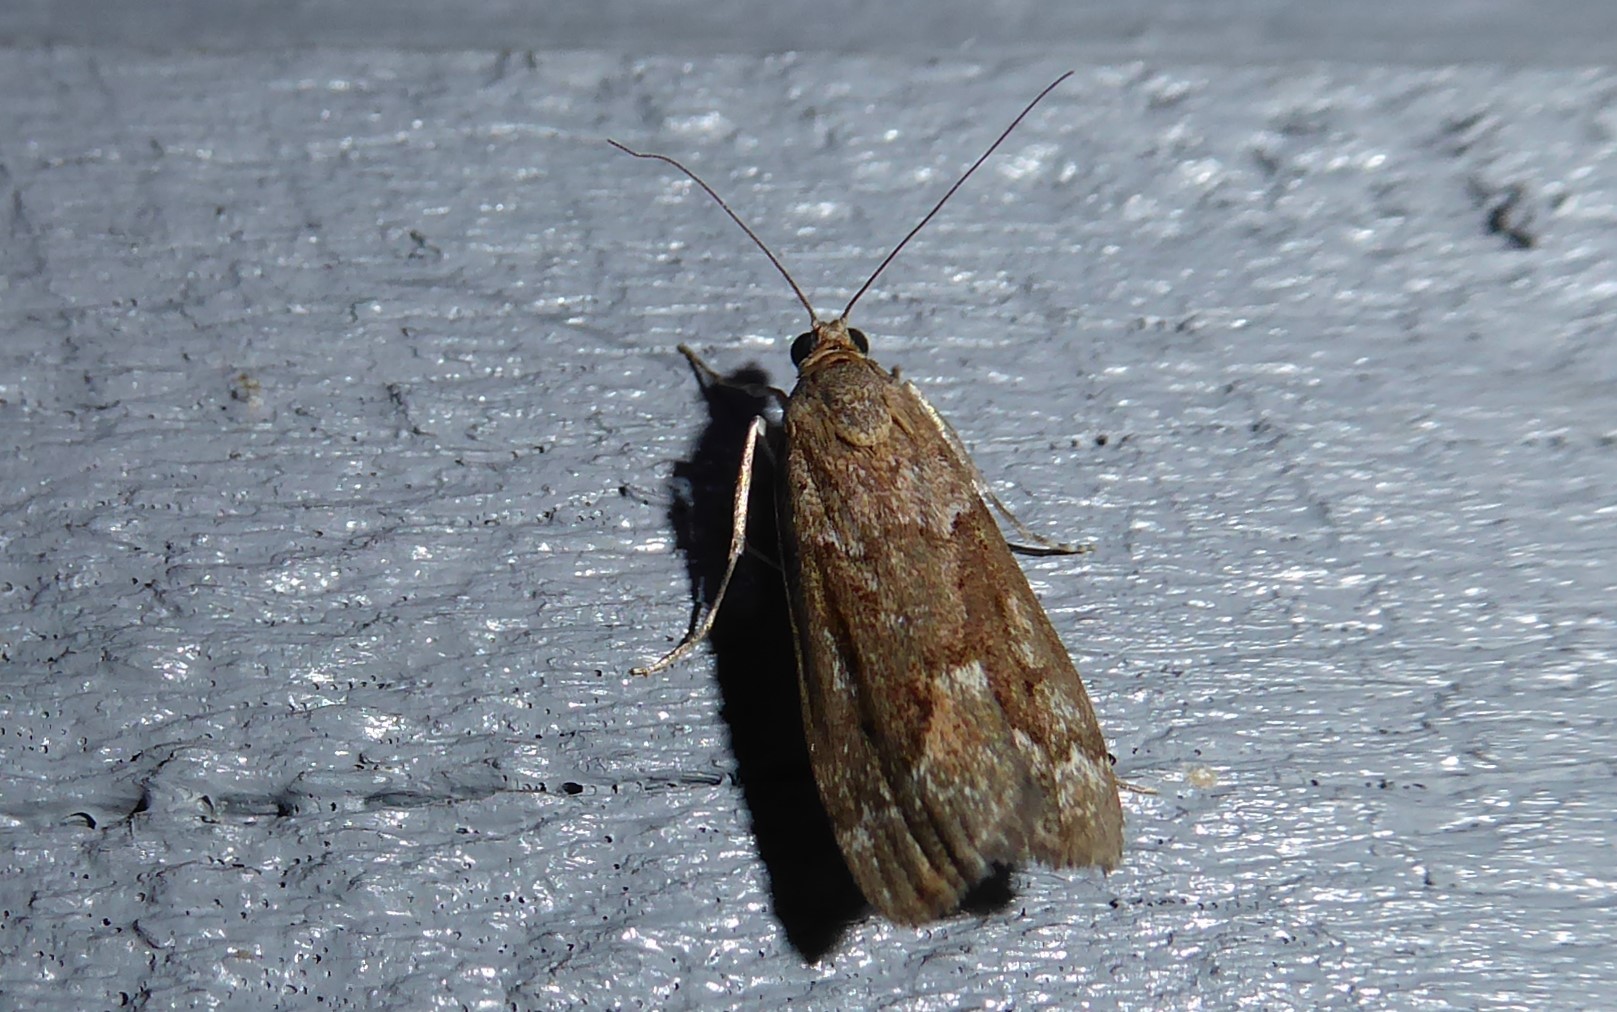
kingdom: Animalia
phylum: Arthropoda
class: Insecta
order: Lepidoptera
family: Crambidae
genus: Eudonia
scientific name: Eudonia submarginalis
